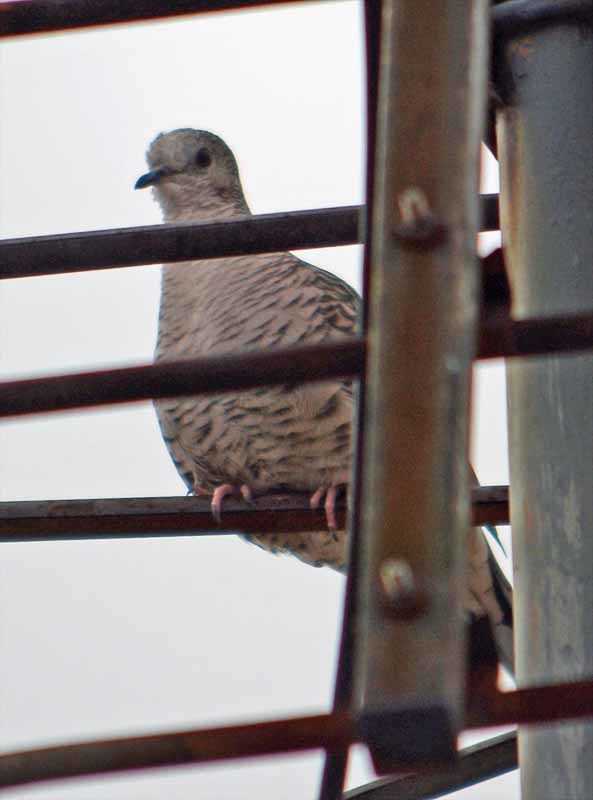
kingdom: Animalia
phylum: Chordata
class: Aves
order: Columbiformes
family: Columbidae
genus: Columbina
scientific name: Columbina inca
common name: Inca dove
